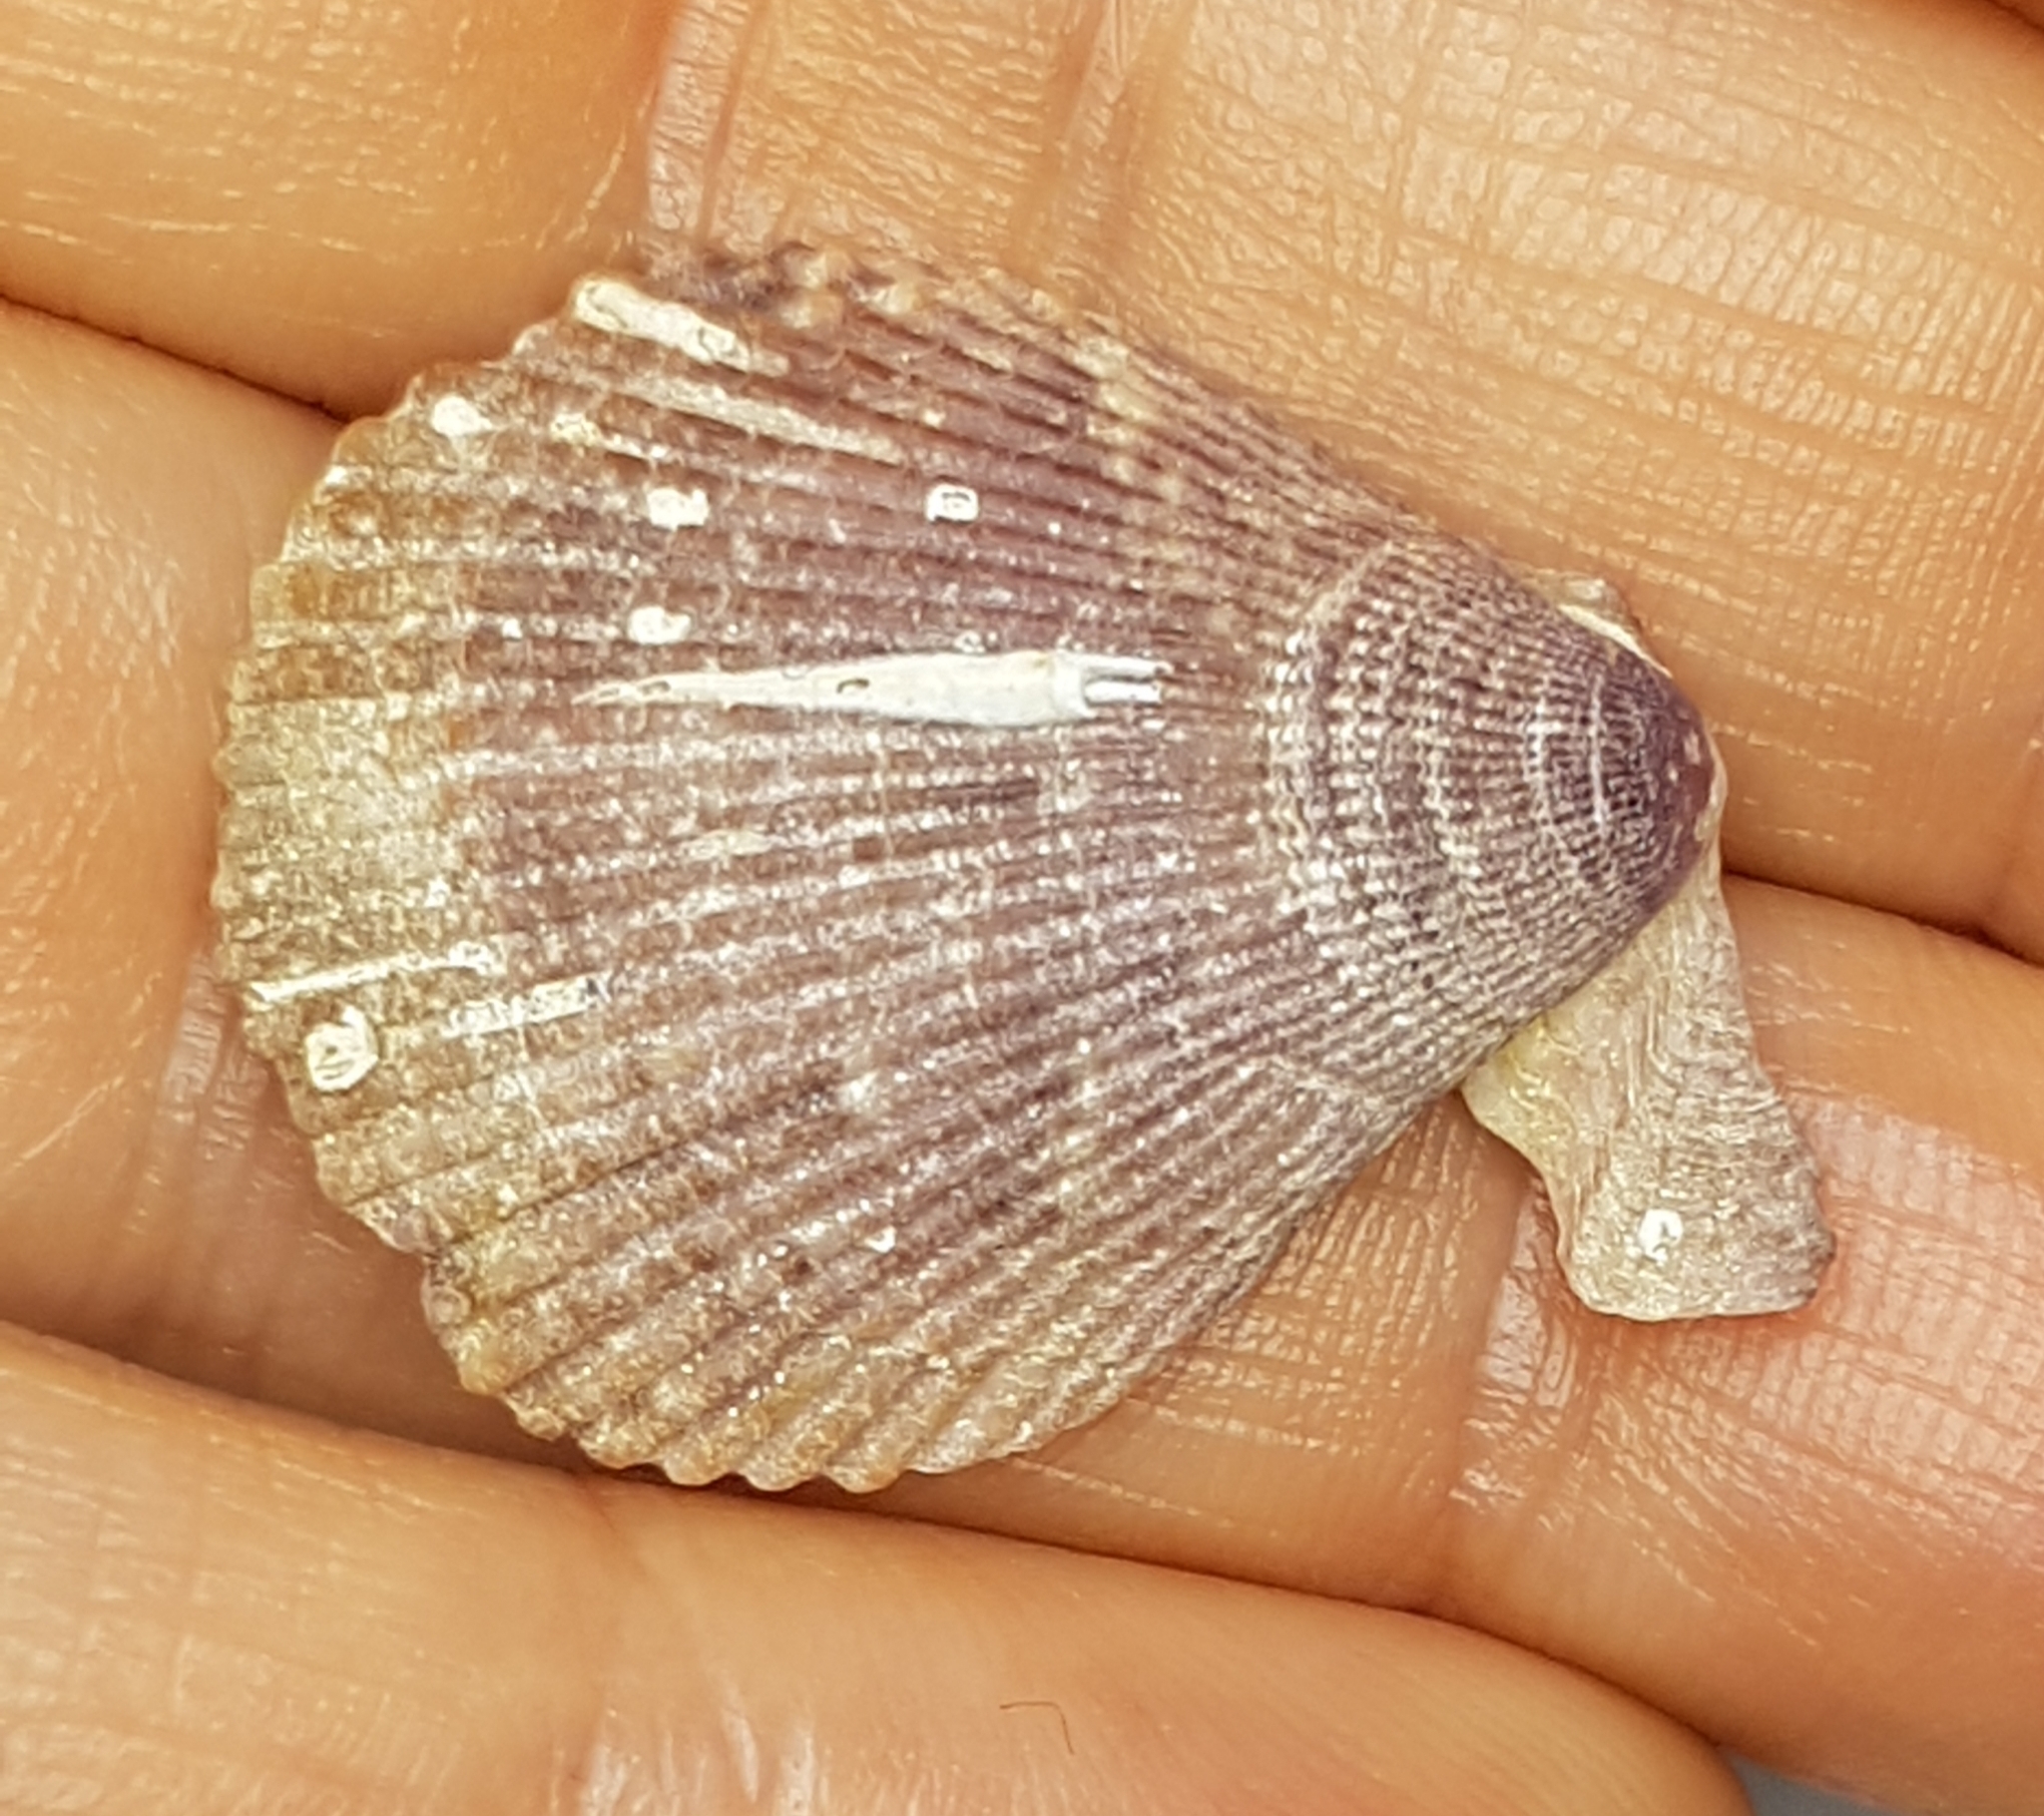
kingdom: Animalia
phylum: Mollusca
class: Bivalvia
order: Pectinida
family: Pectinidae
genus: Mimachlamys
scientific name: Mimachlamys varia
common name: Variegated scallop
